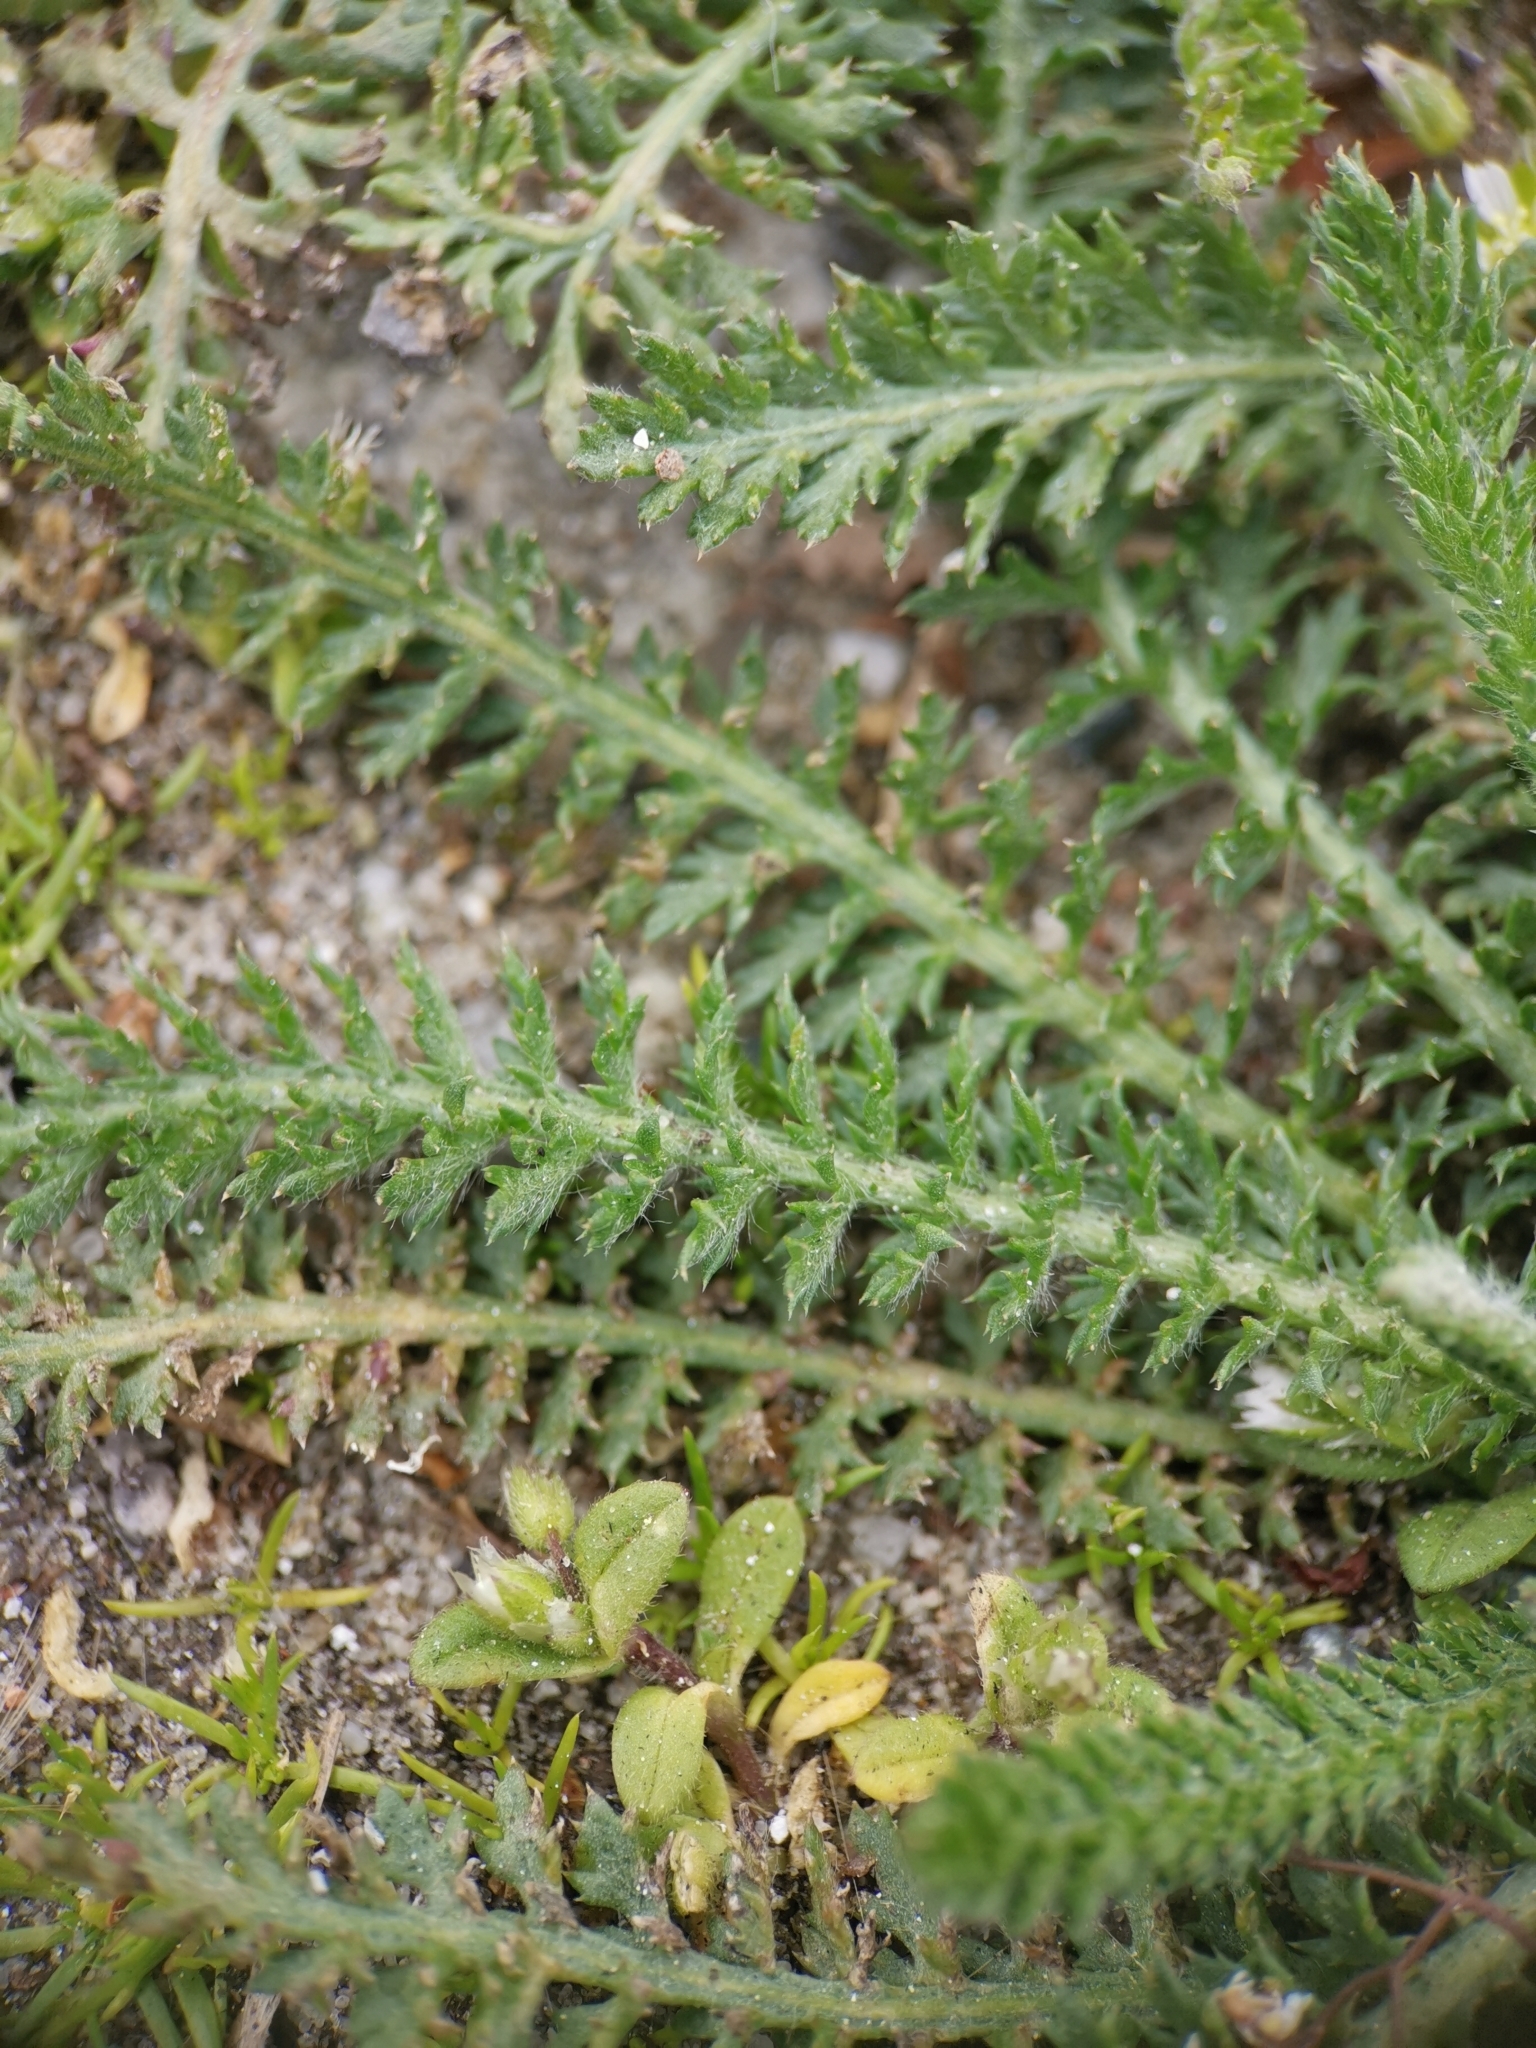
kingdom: Plantae
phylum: Tracheophyta
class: Magnoliopsida
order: Asterales
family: Asteraceae
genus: Achillea
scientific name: Achillea millefolium
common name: Yarrow
